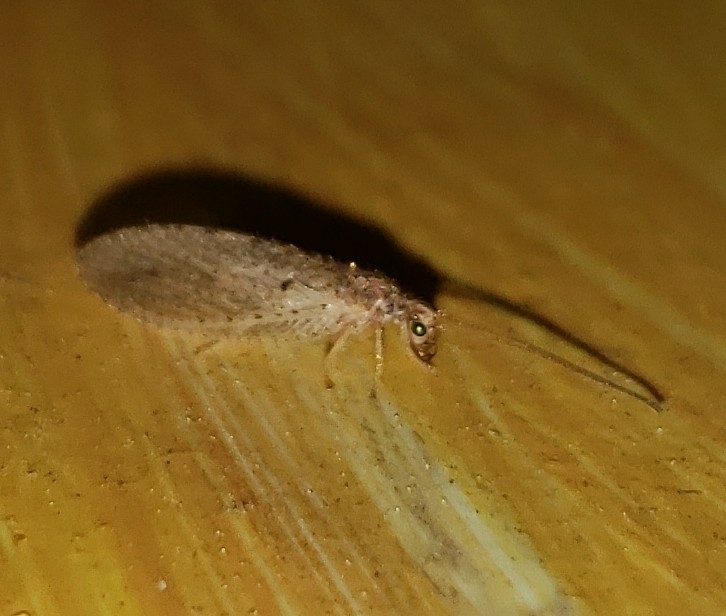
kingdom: Animalia
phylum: Arthropoda
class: Insecta
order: Neuroptera
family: Hemerobiidae
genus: Micromus
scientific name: Micromus subanticus
